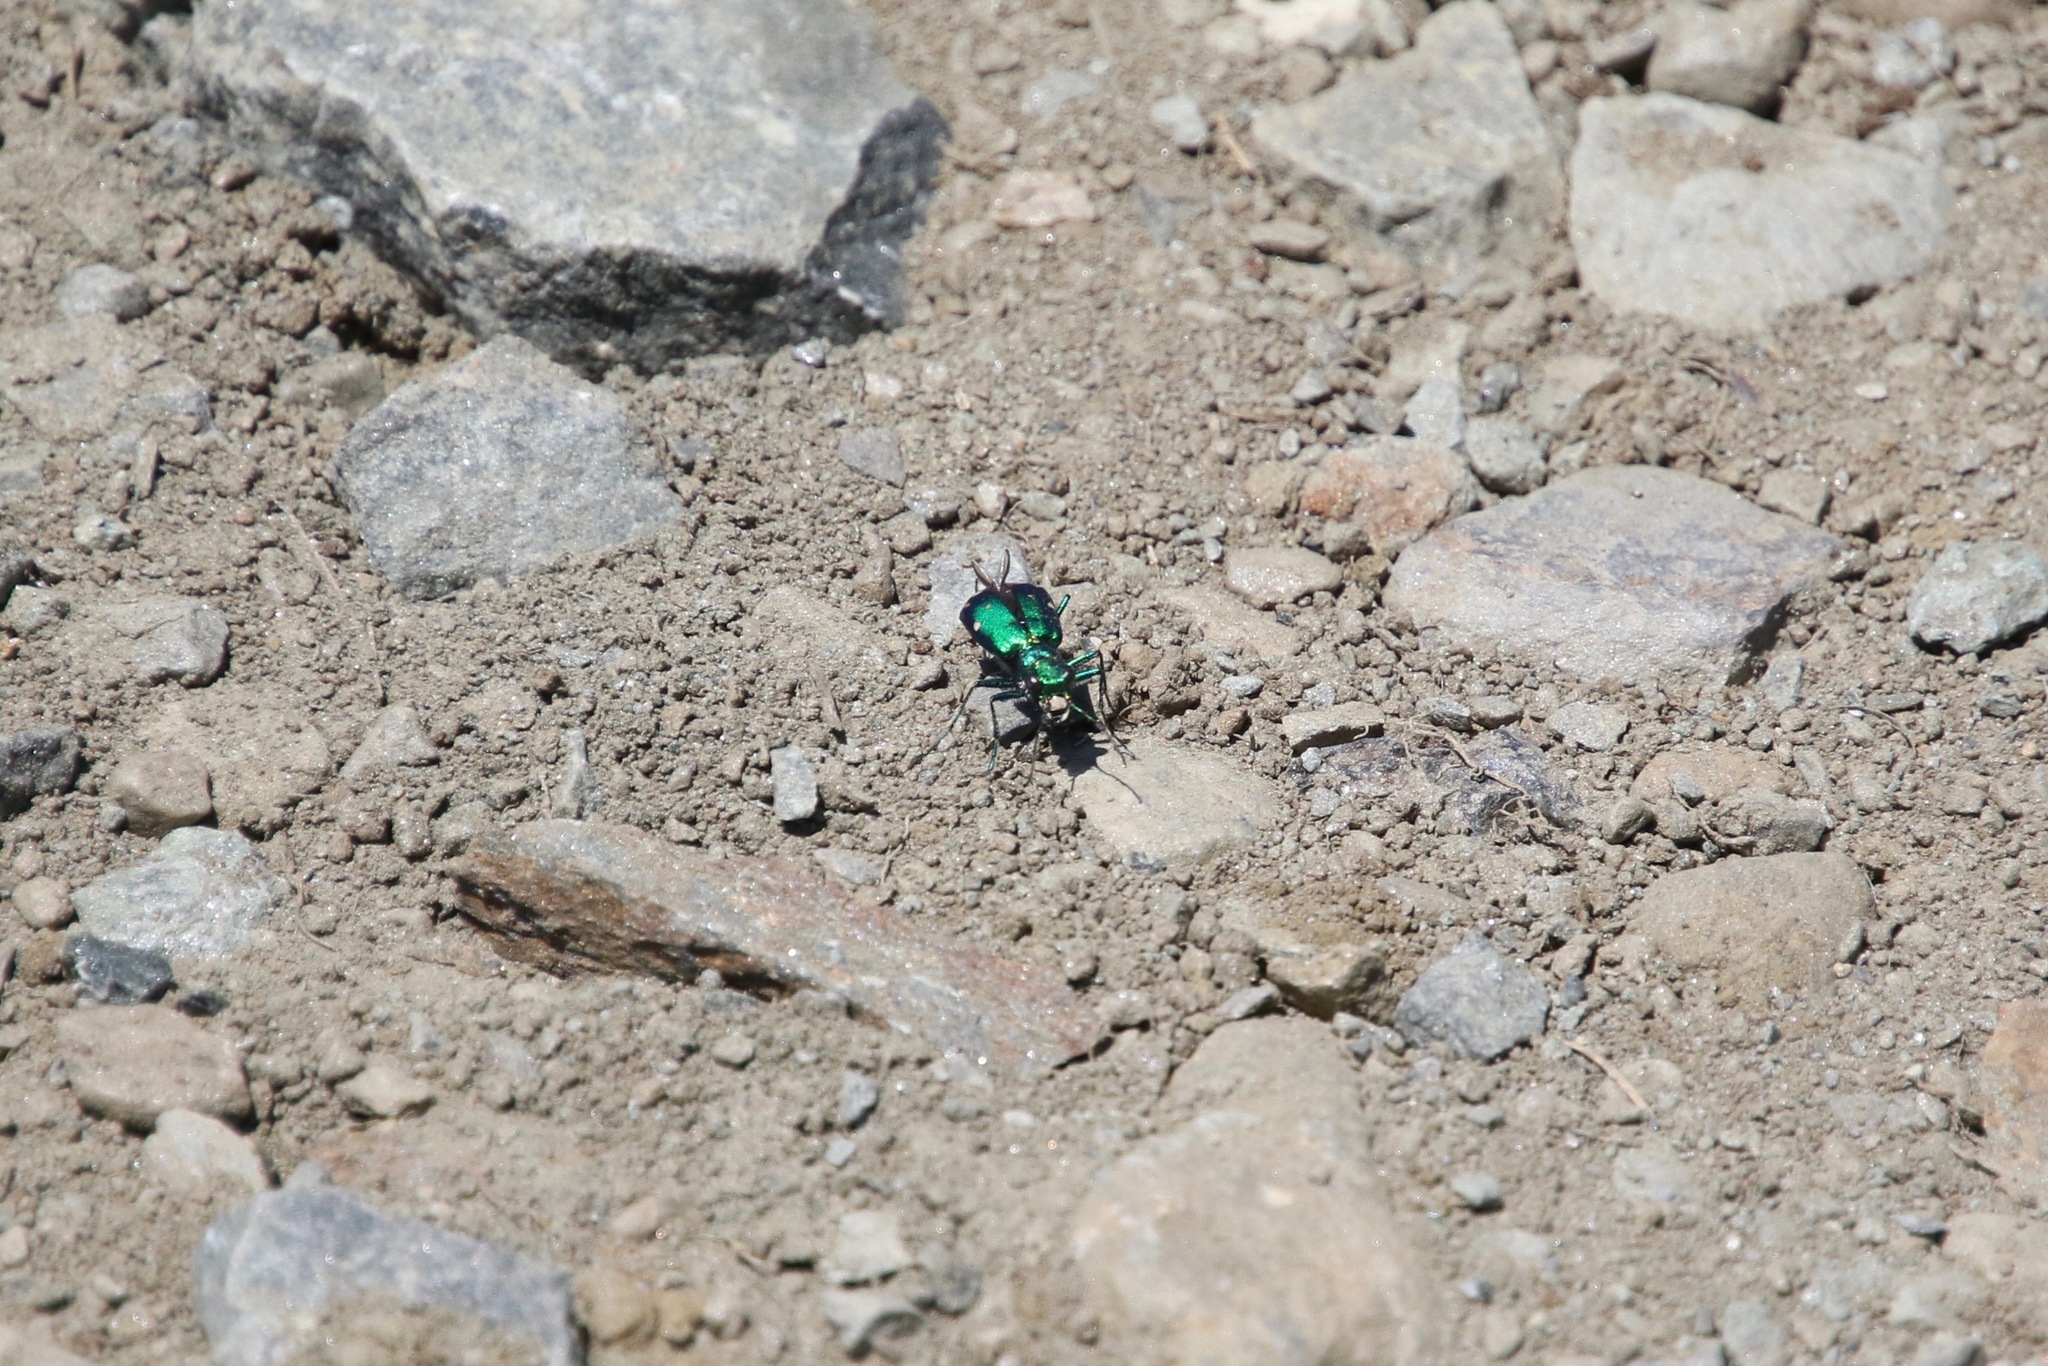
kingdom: Animalia
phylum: Arthropoda
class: Insecta
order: Coleoptera
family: Carabidae
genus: Cicindela
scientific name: Cicindela sexguttata
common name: Six-spotted tiger beetle
